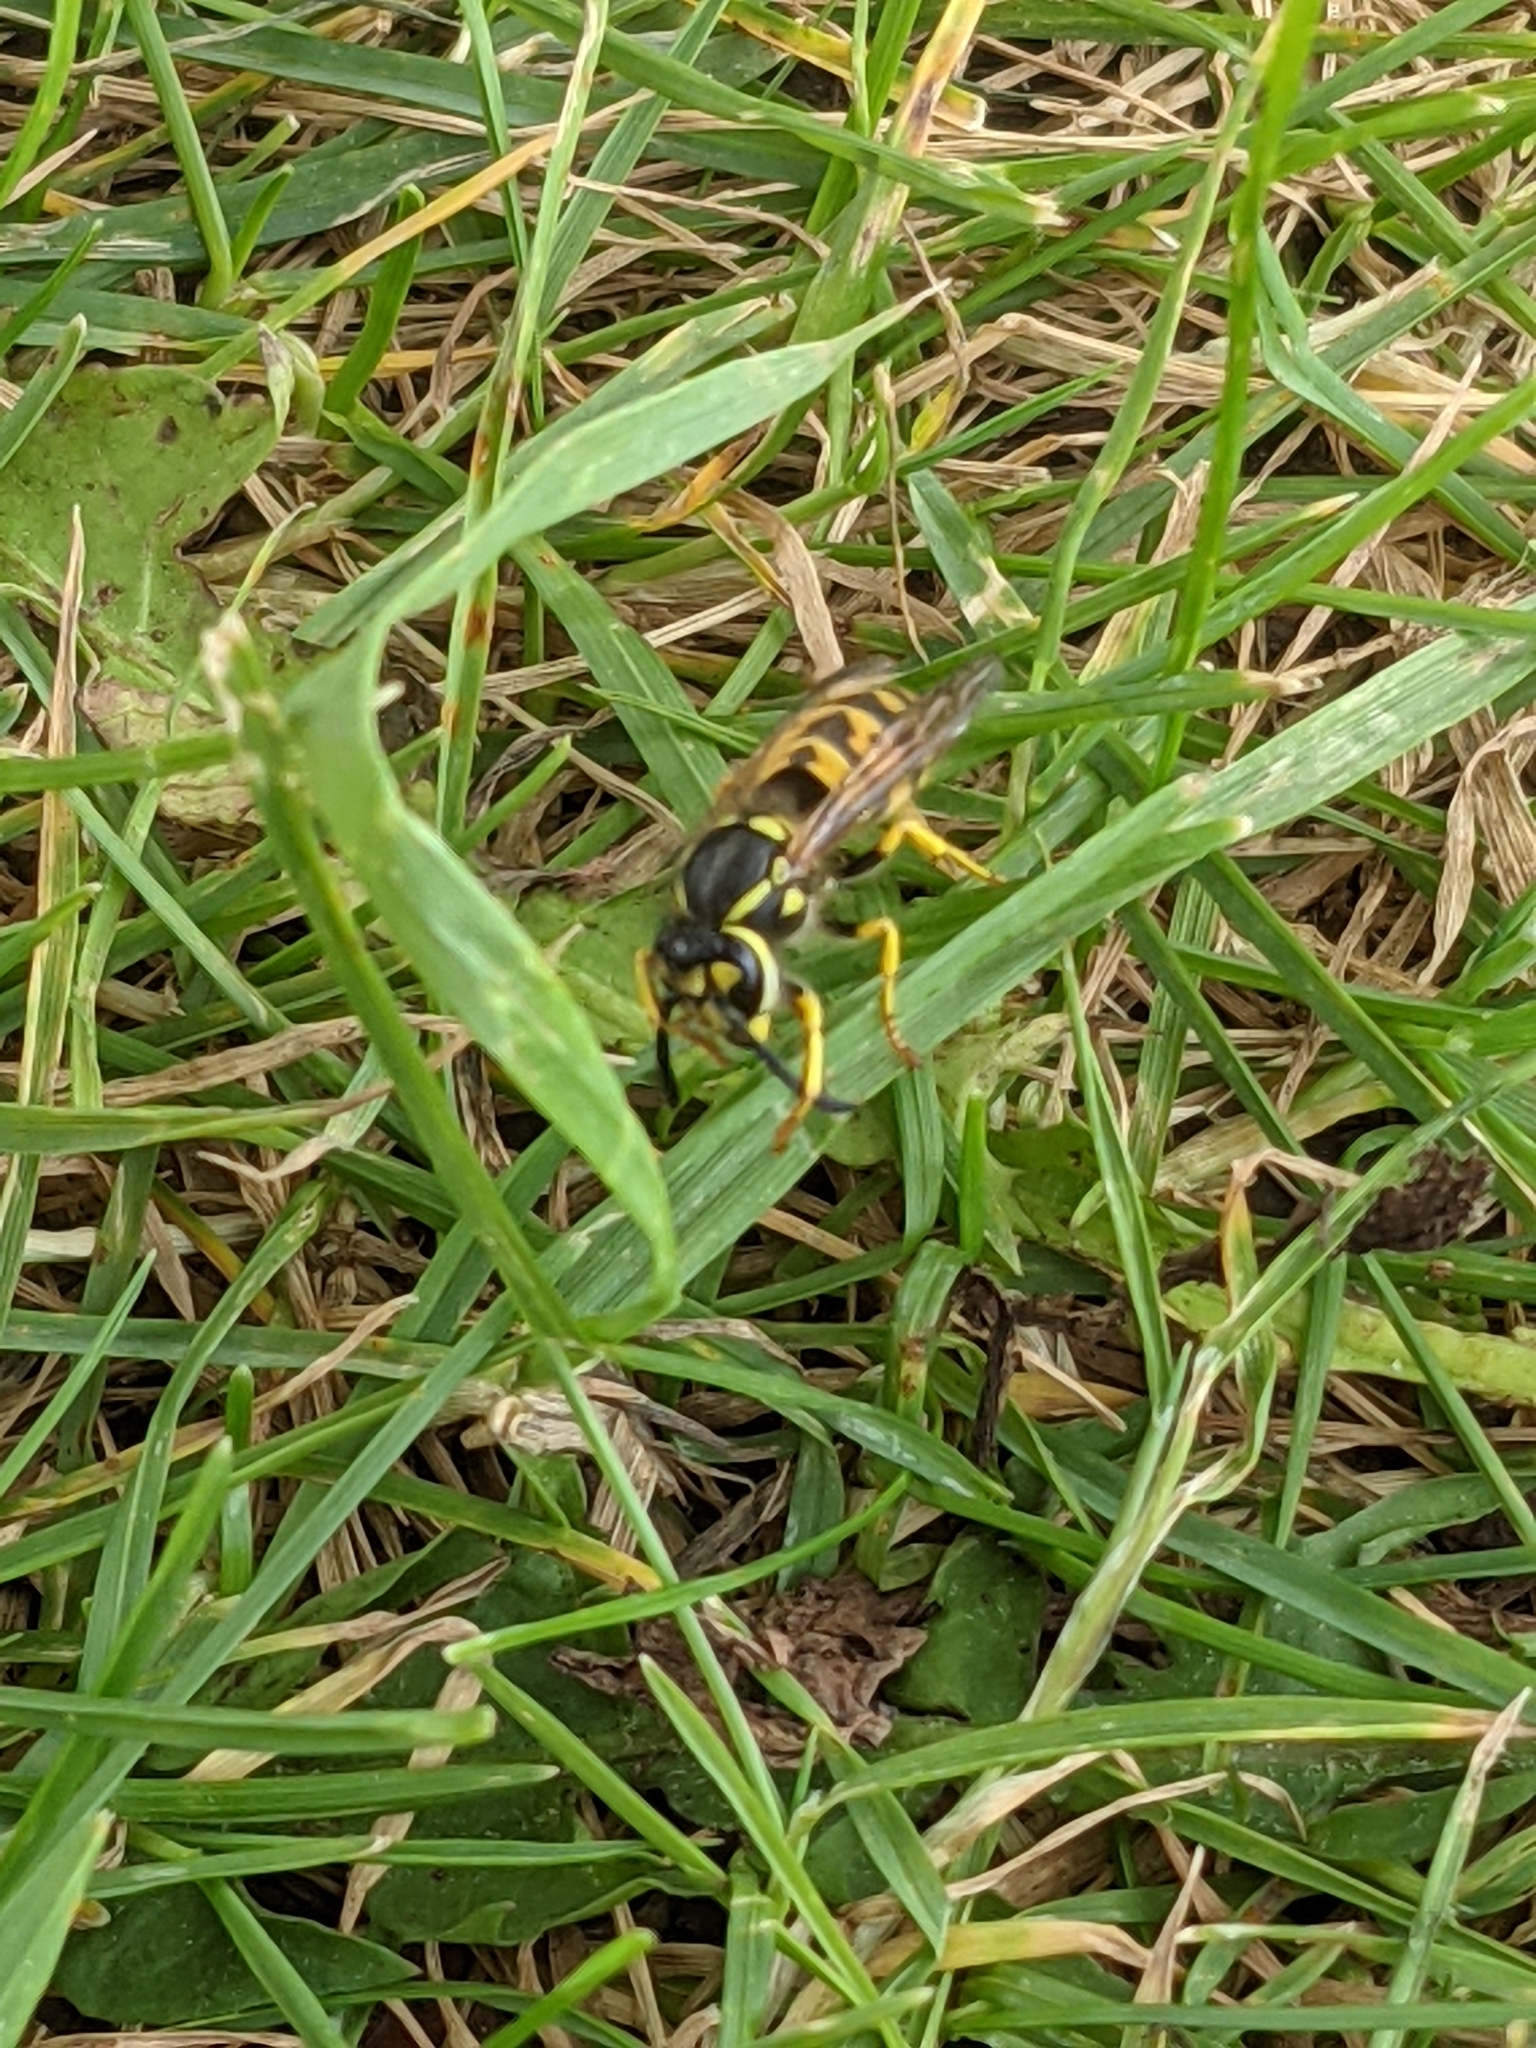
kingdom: Animalia
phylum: Arthropoda
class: Insecta
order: Hymenoptera
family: Vespidae
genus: Vespula
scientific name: Vespula germanica
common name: German wasp
